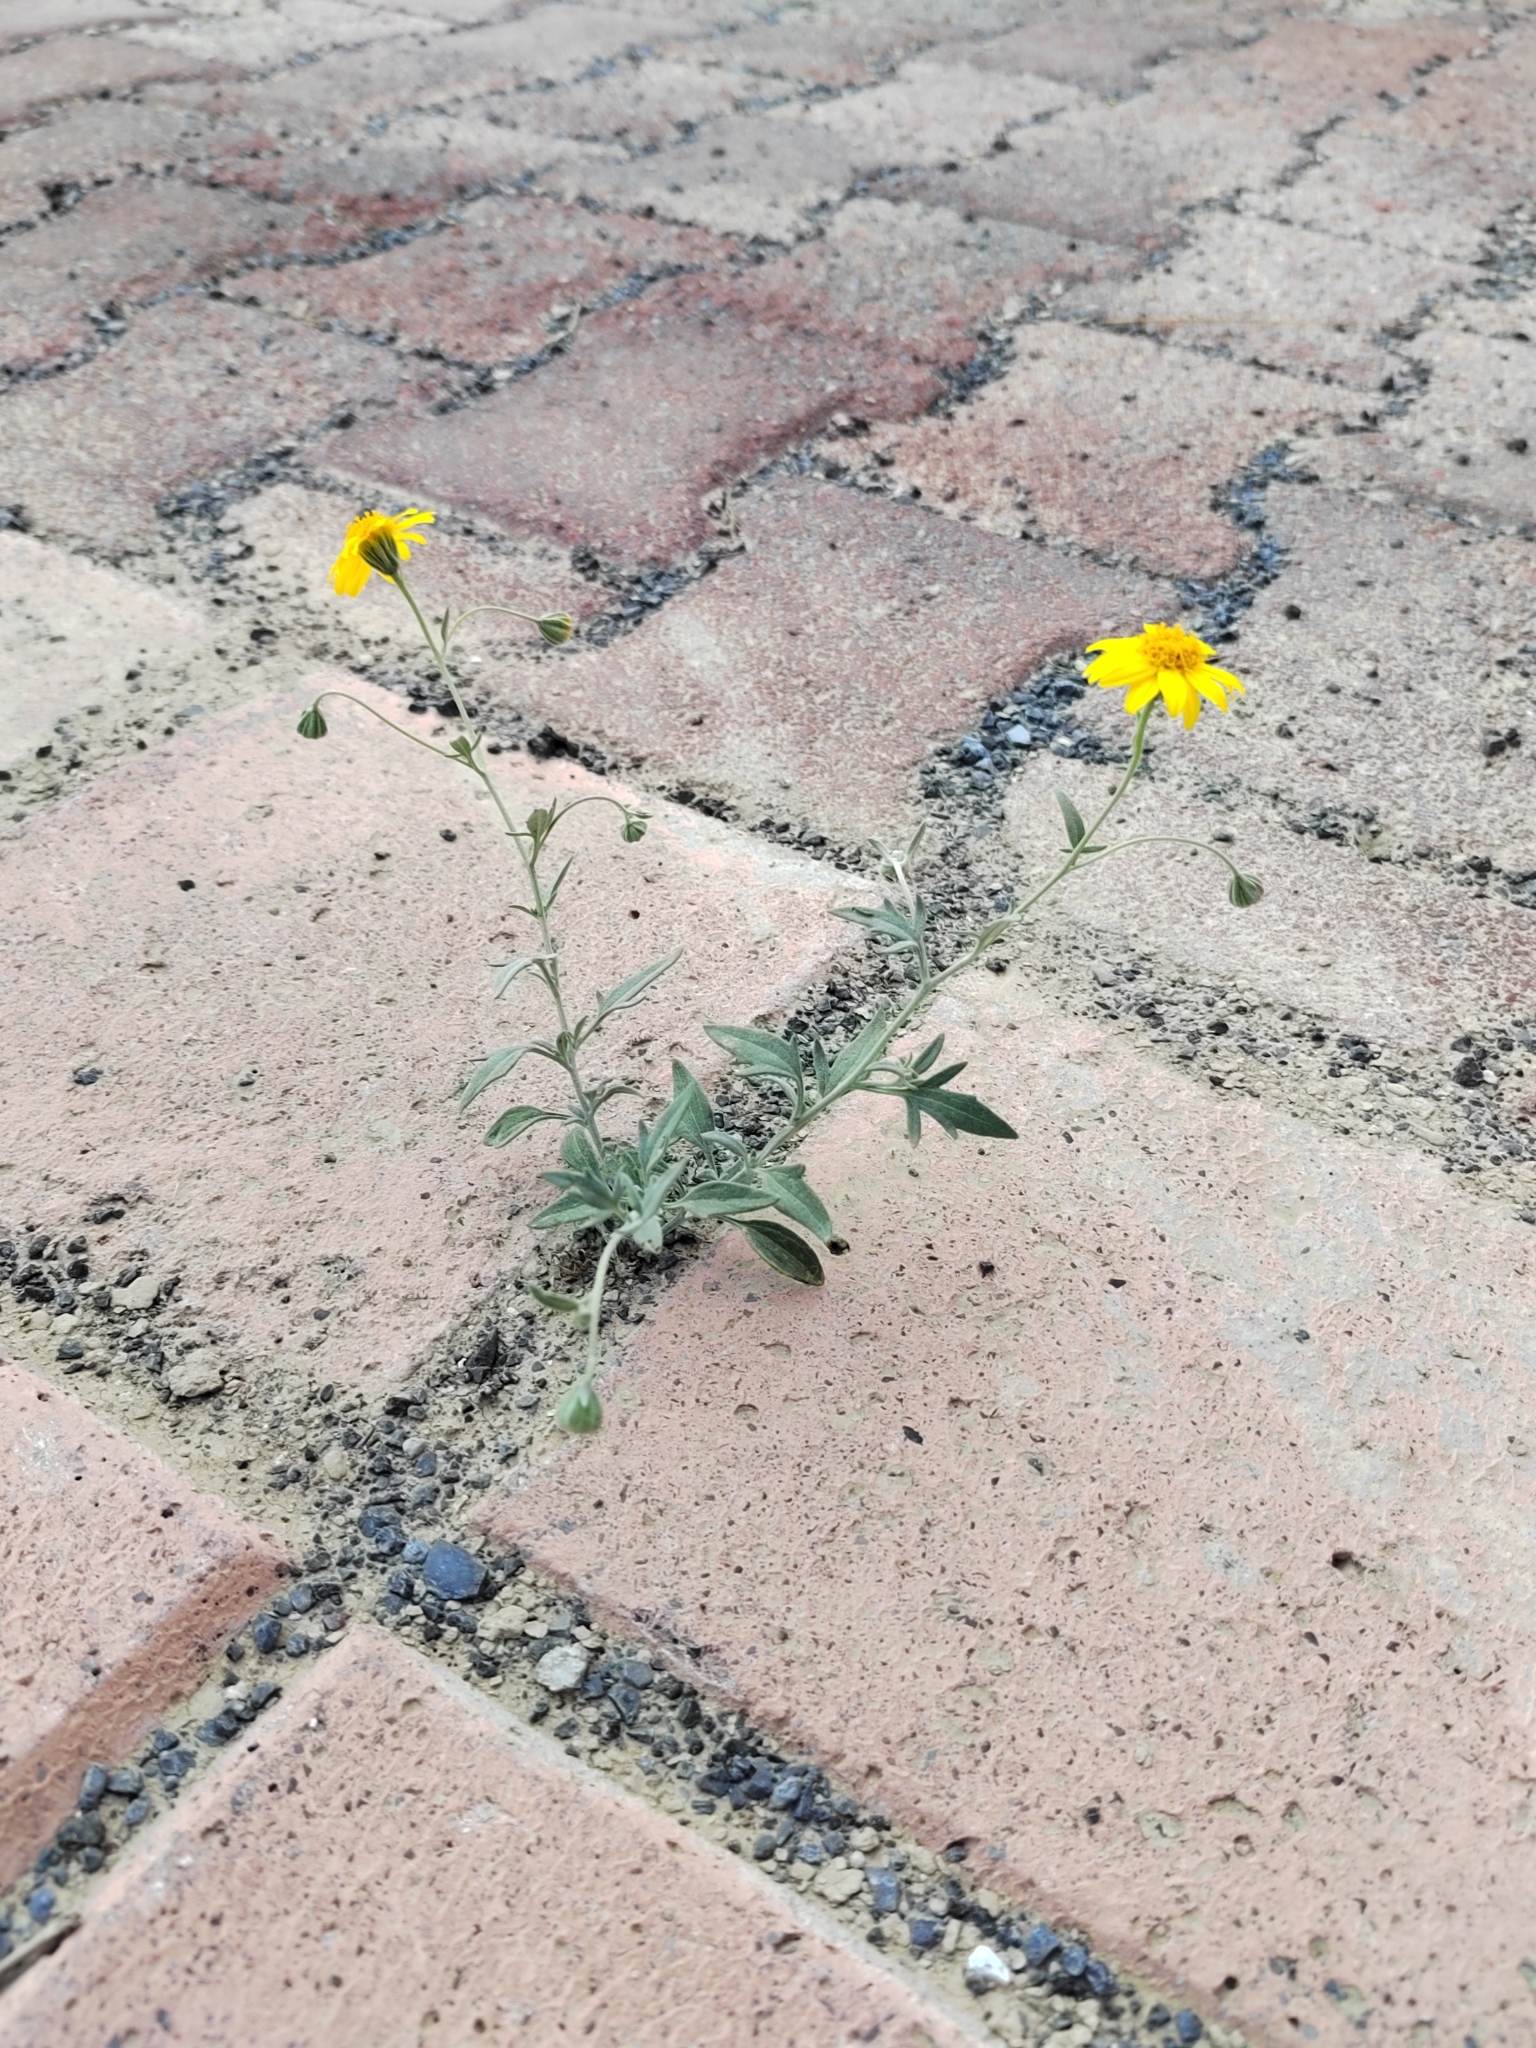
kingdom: Plantae
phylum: Tracheophyta
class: Magnoliopsida
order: Asterales
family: Asteraceae
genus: Picradeniopsis
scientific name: Picradeniopsis absinthifolia
